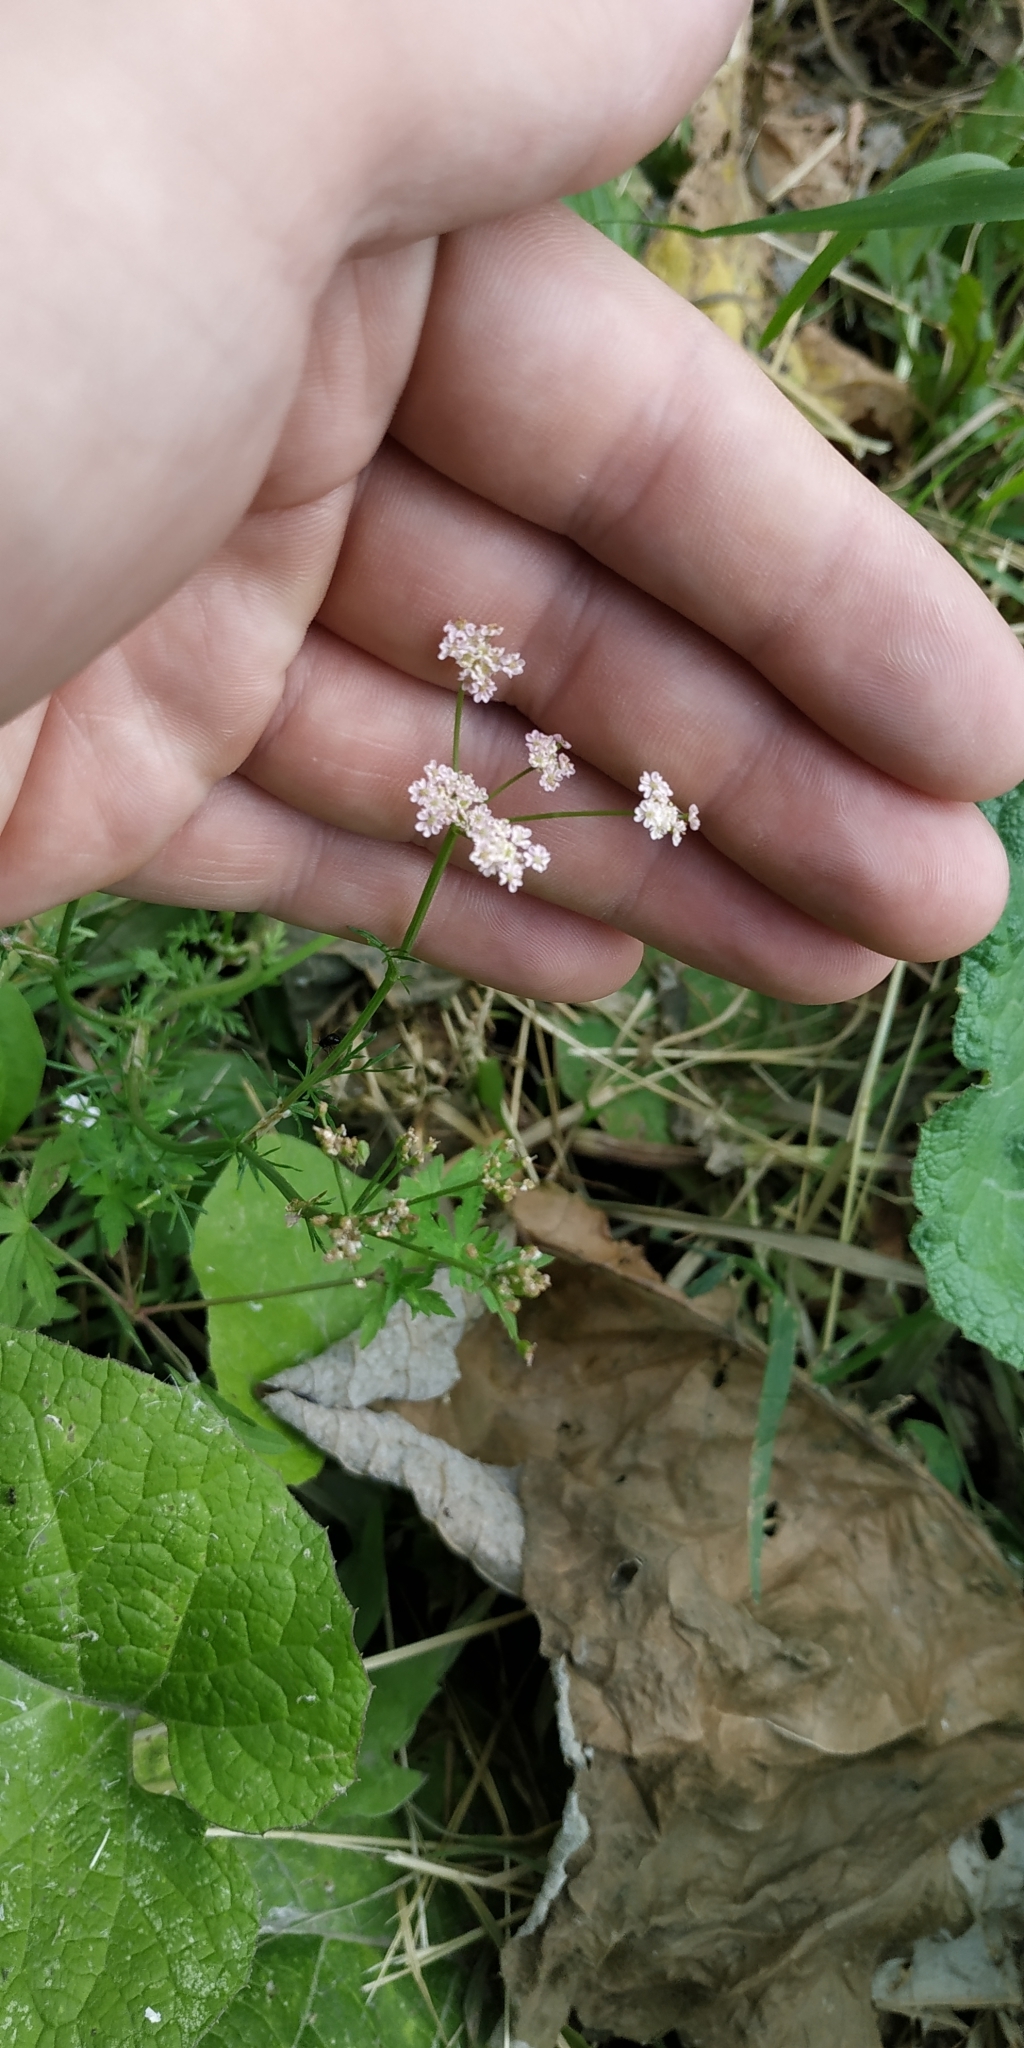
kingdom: Plantae
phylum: Tracheophyta
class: Magnoliopsida
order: Apiales
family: Apiaceae
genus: Carum
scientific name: Carum carvi
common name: Caraway
